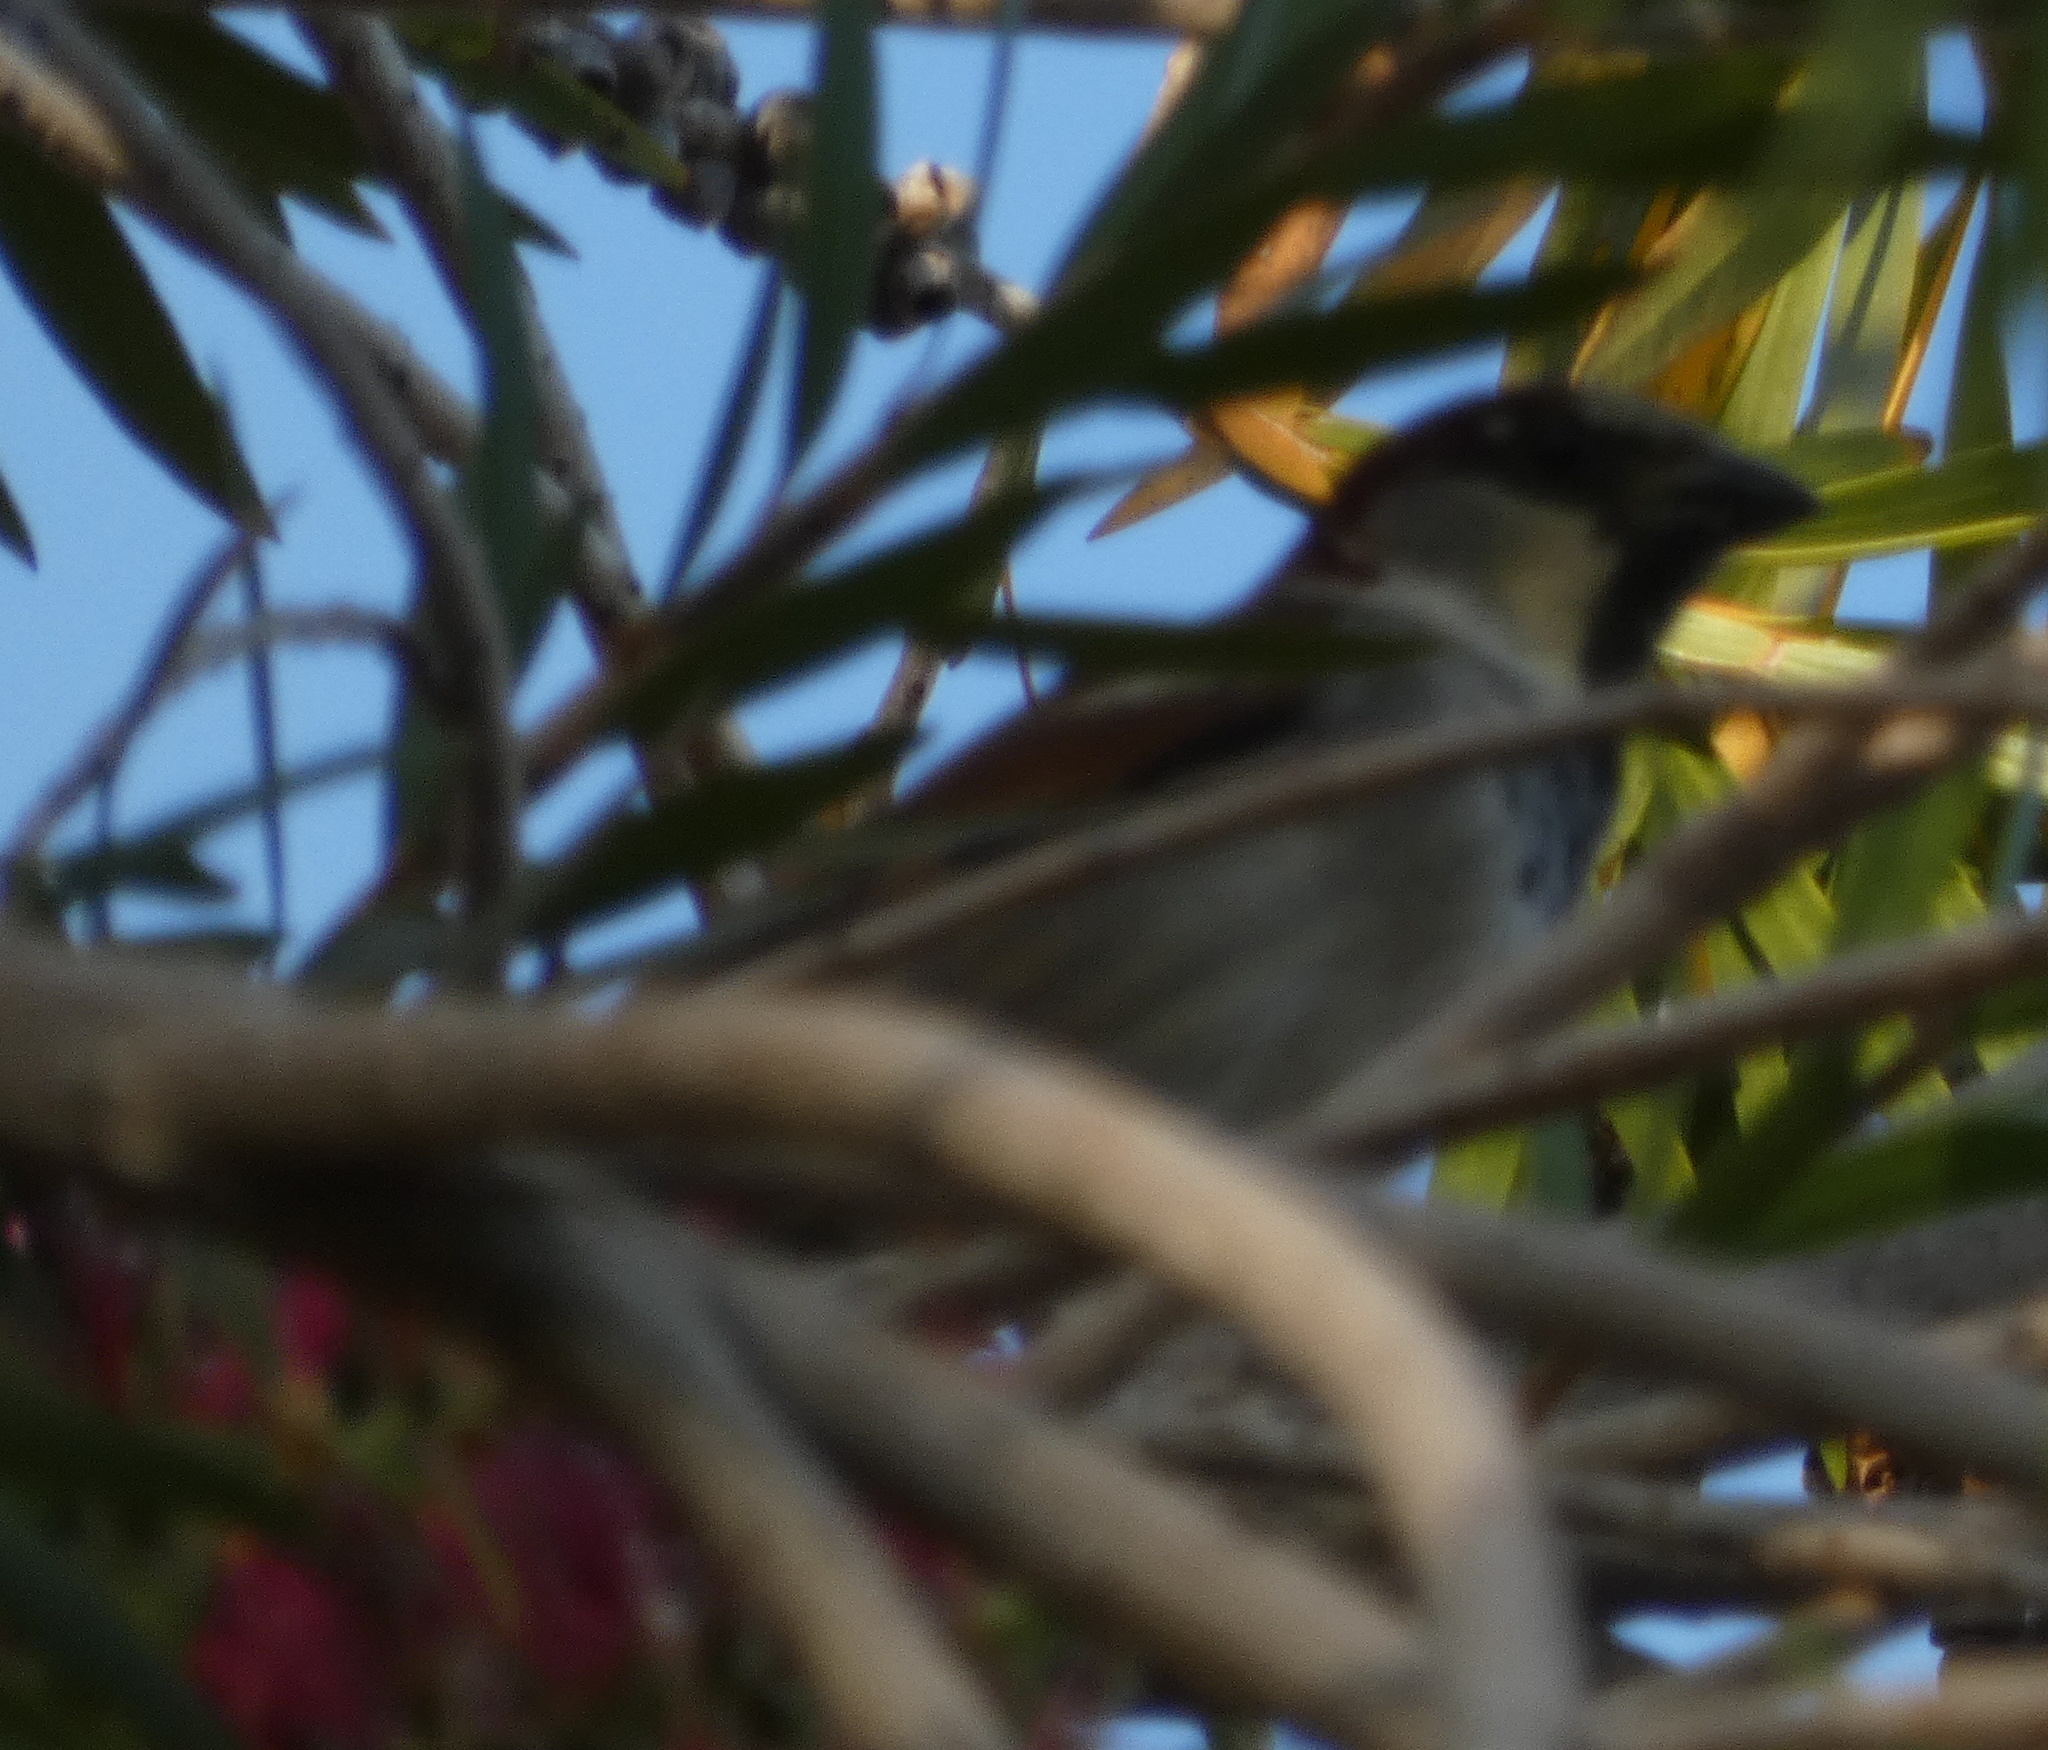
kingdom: Animalia
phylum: Chordata
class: Aves
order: Passeriformes
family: Passeridae
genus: Passer
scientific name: Passer domesticus
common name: House sparrow
